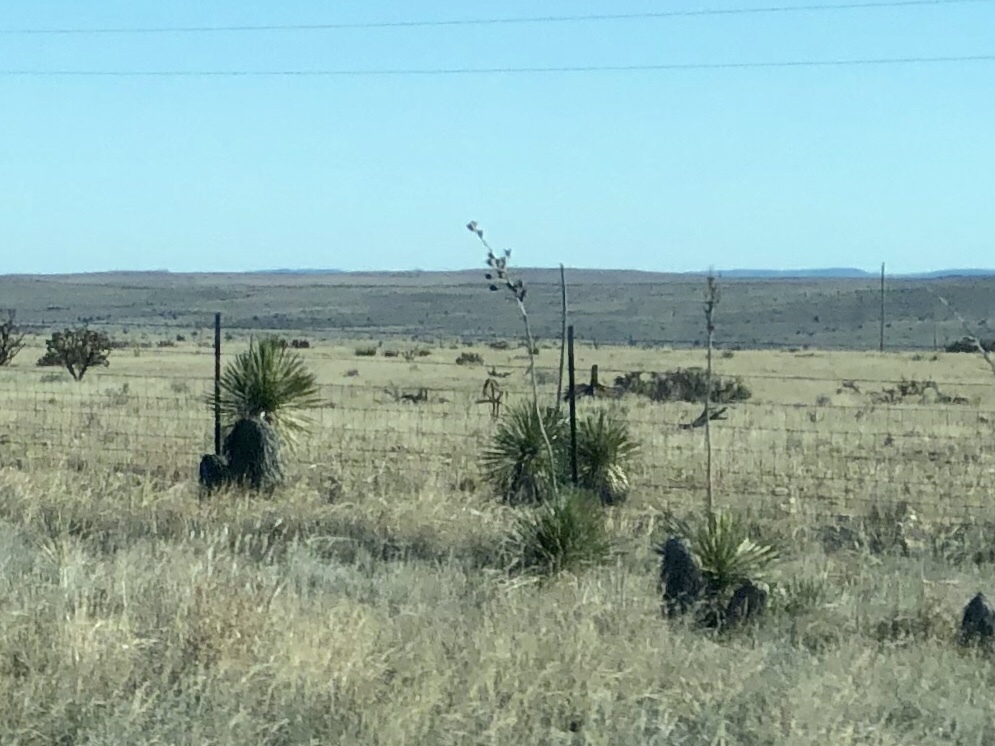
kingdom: Plantae
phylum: Tracheophyta
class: Liliopsida
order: Asparagales
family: Asparagaceae
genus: Yucca
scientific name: Yucca elata
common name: Palmella
